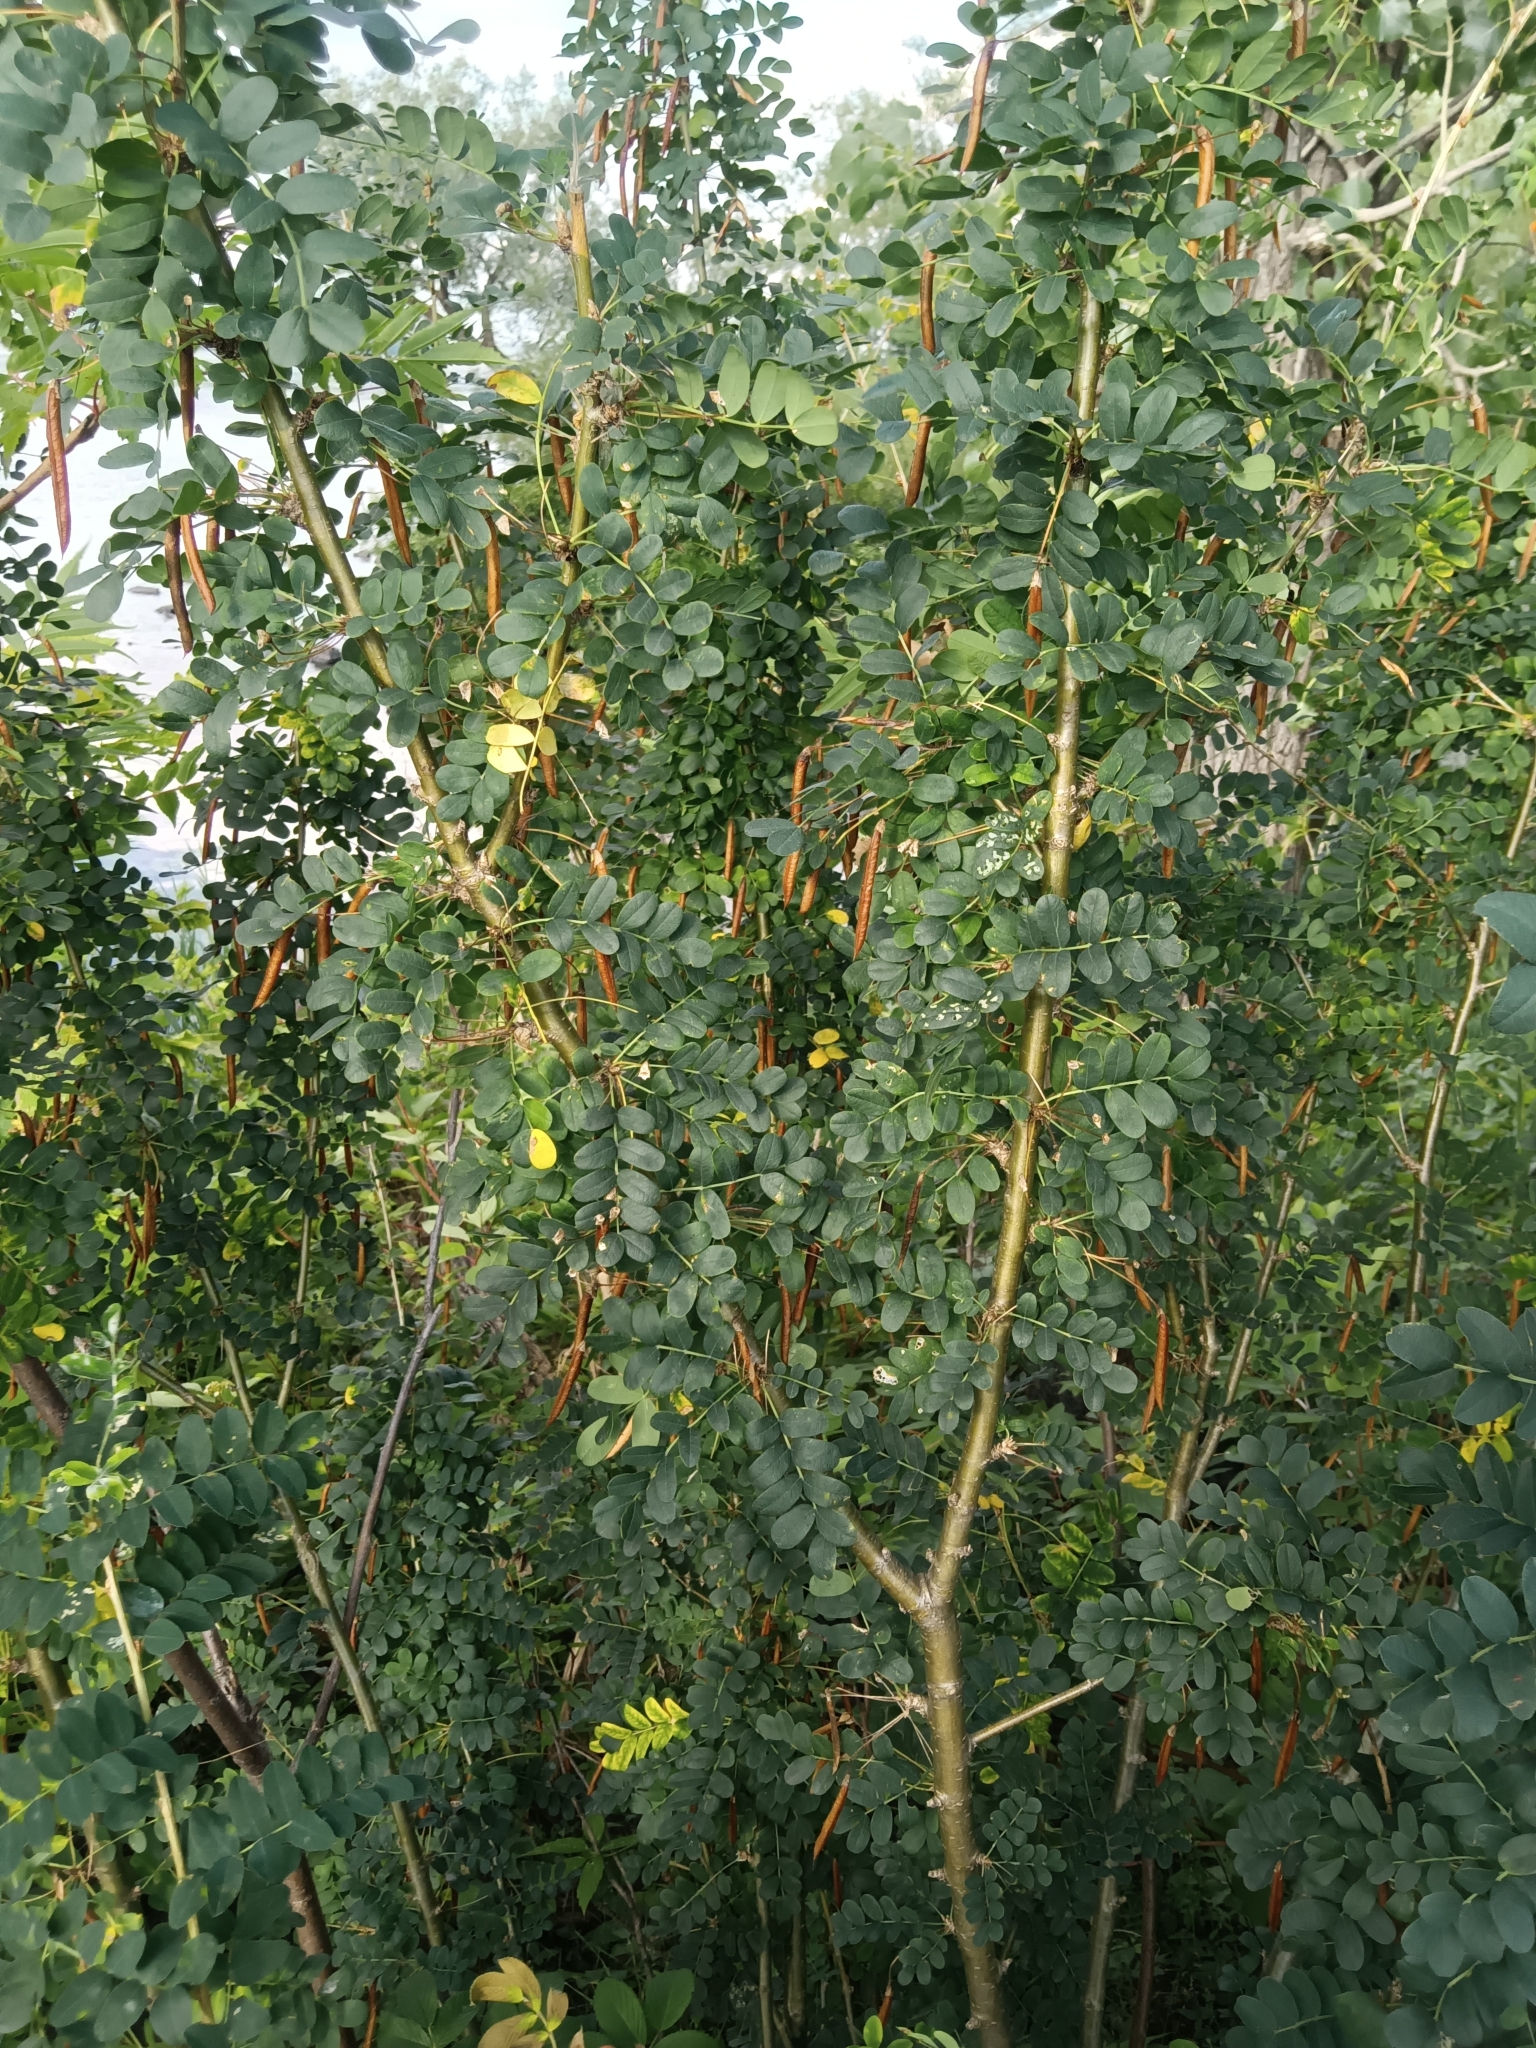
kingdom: Plantae
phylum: Tracheophyta
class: Magnoliopsida
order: Fabales
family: Fabaceae
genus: Caragana
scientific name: Caragana arborescens
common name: Siberian peashrub
